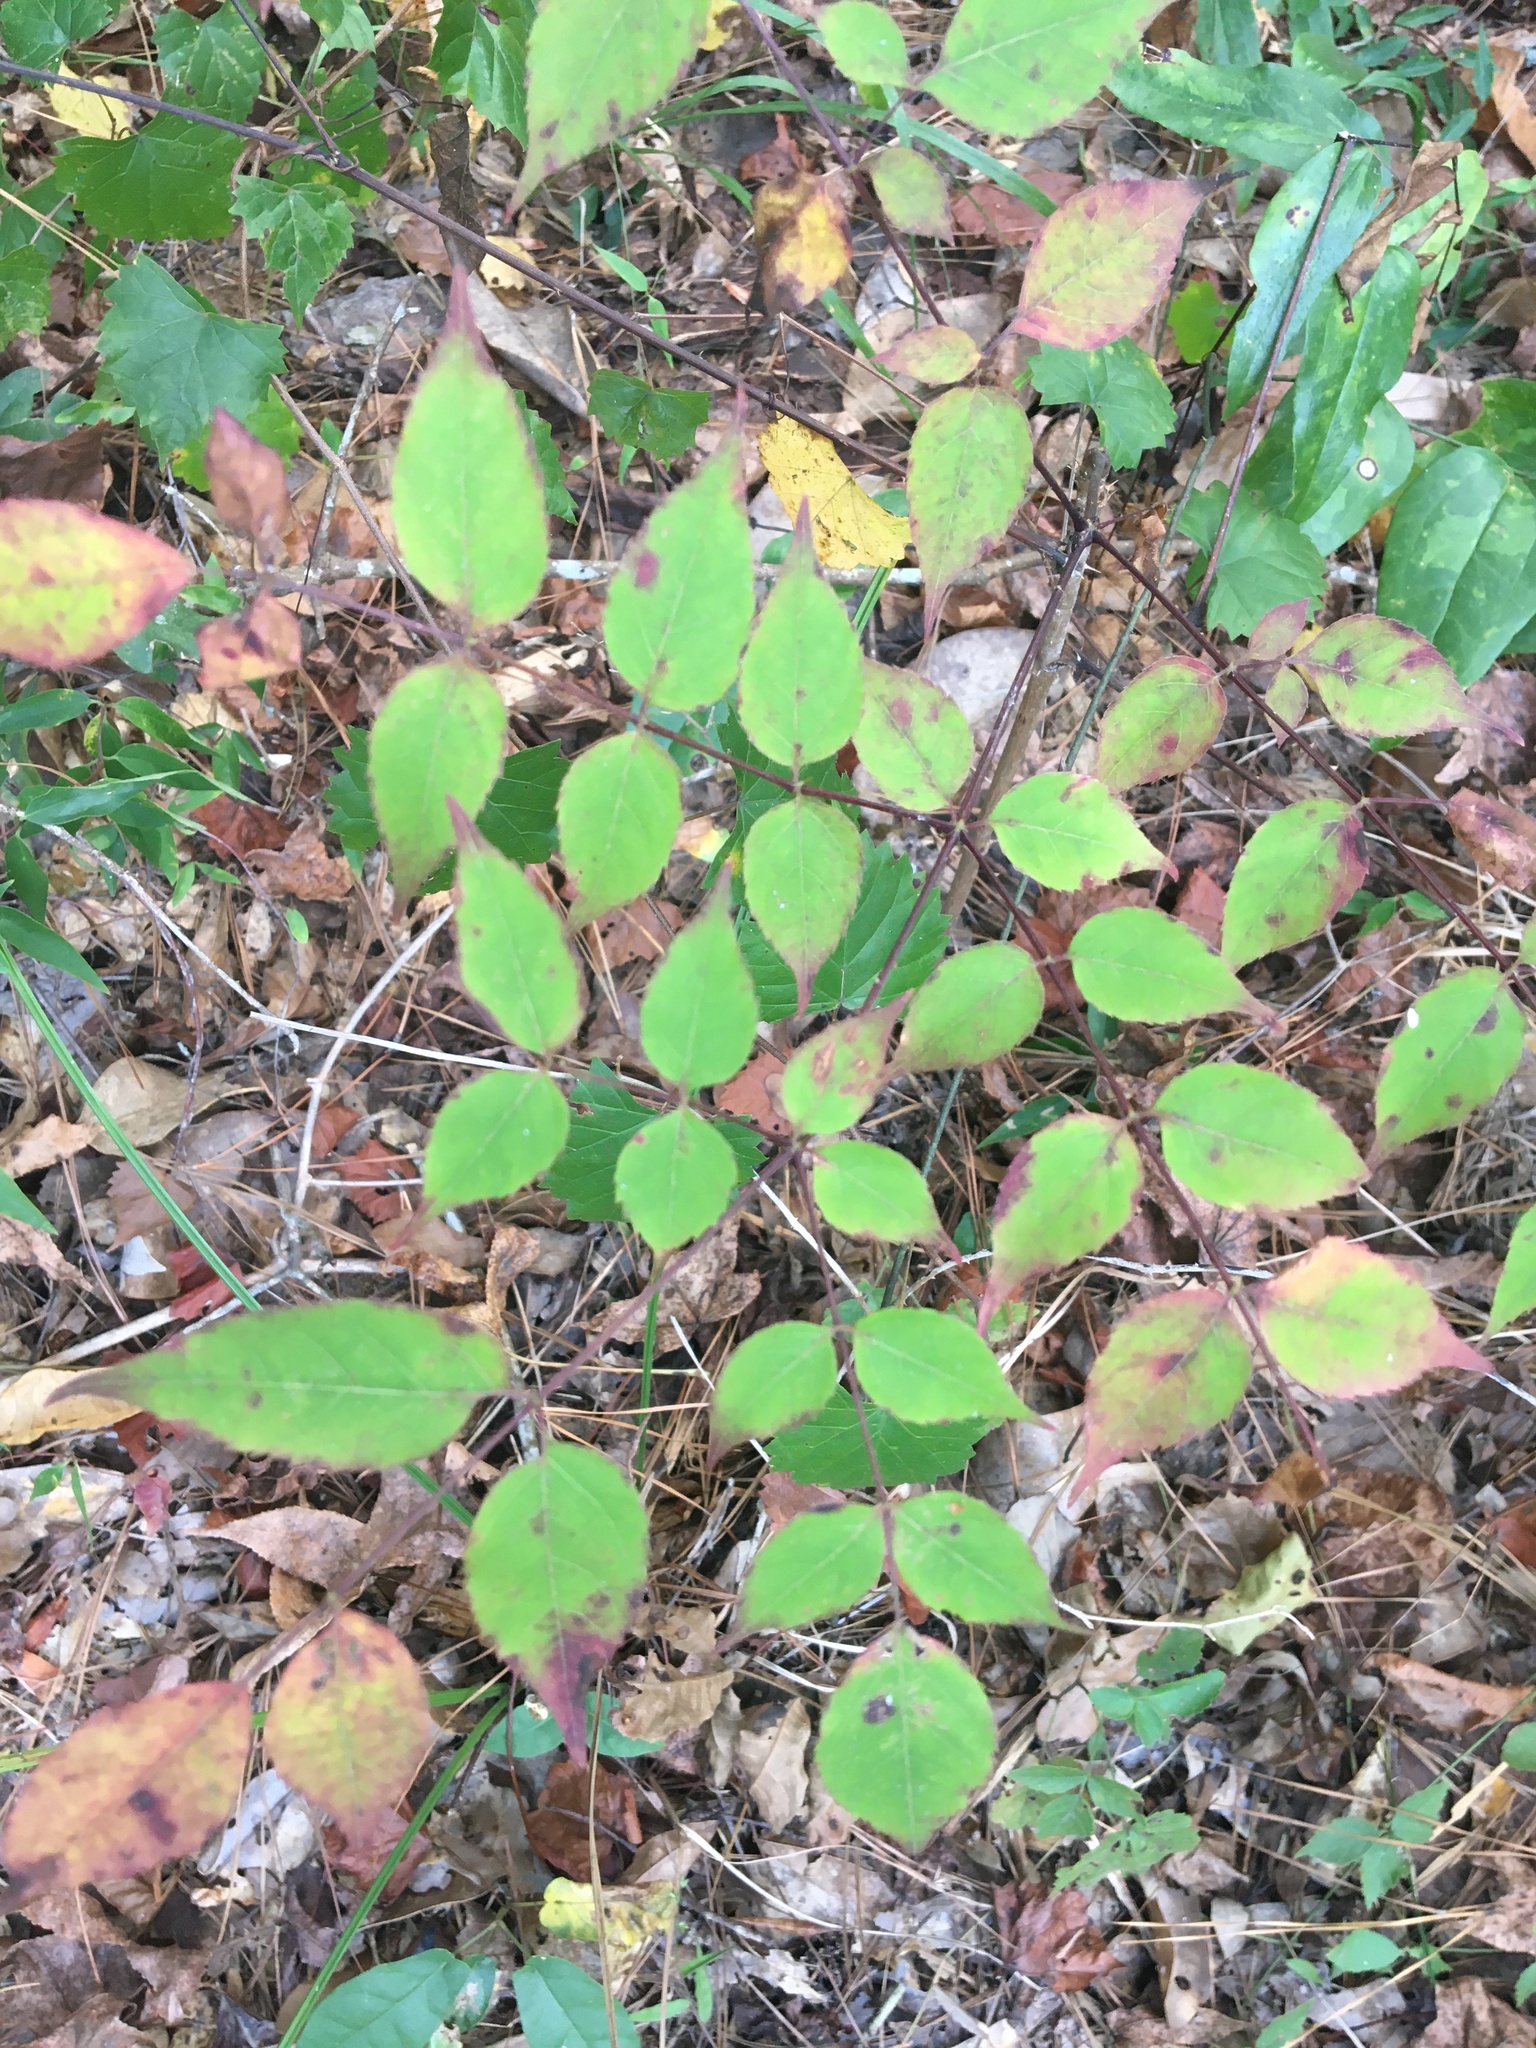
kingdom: Plantae
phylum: Tracheophyta
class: Magnoliopsida
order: Apiales
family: Araliaceae
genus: Aralia
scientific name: Aralia spinosa
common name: Hercules'-club
